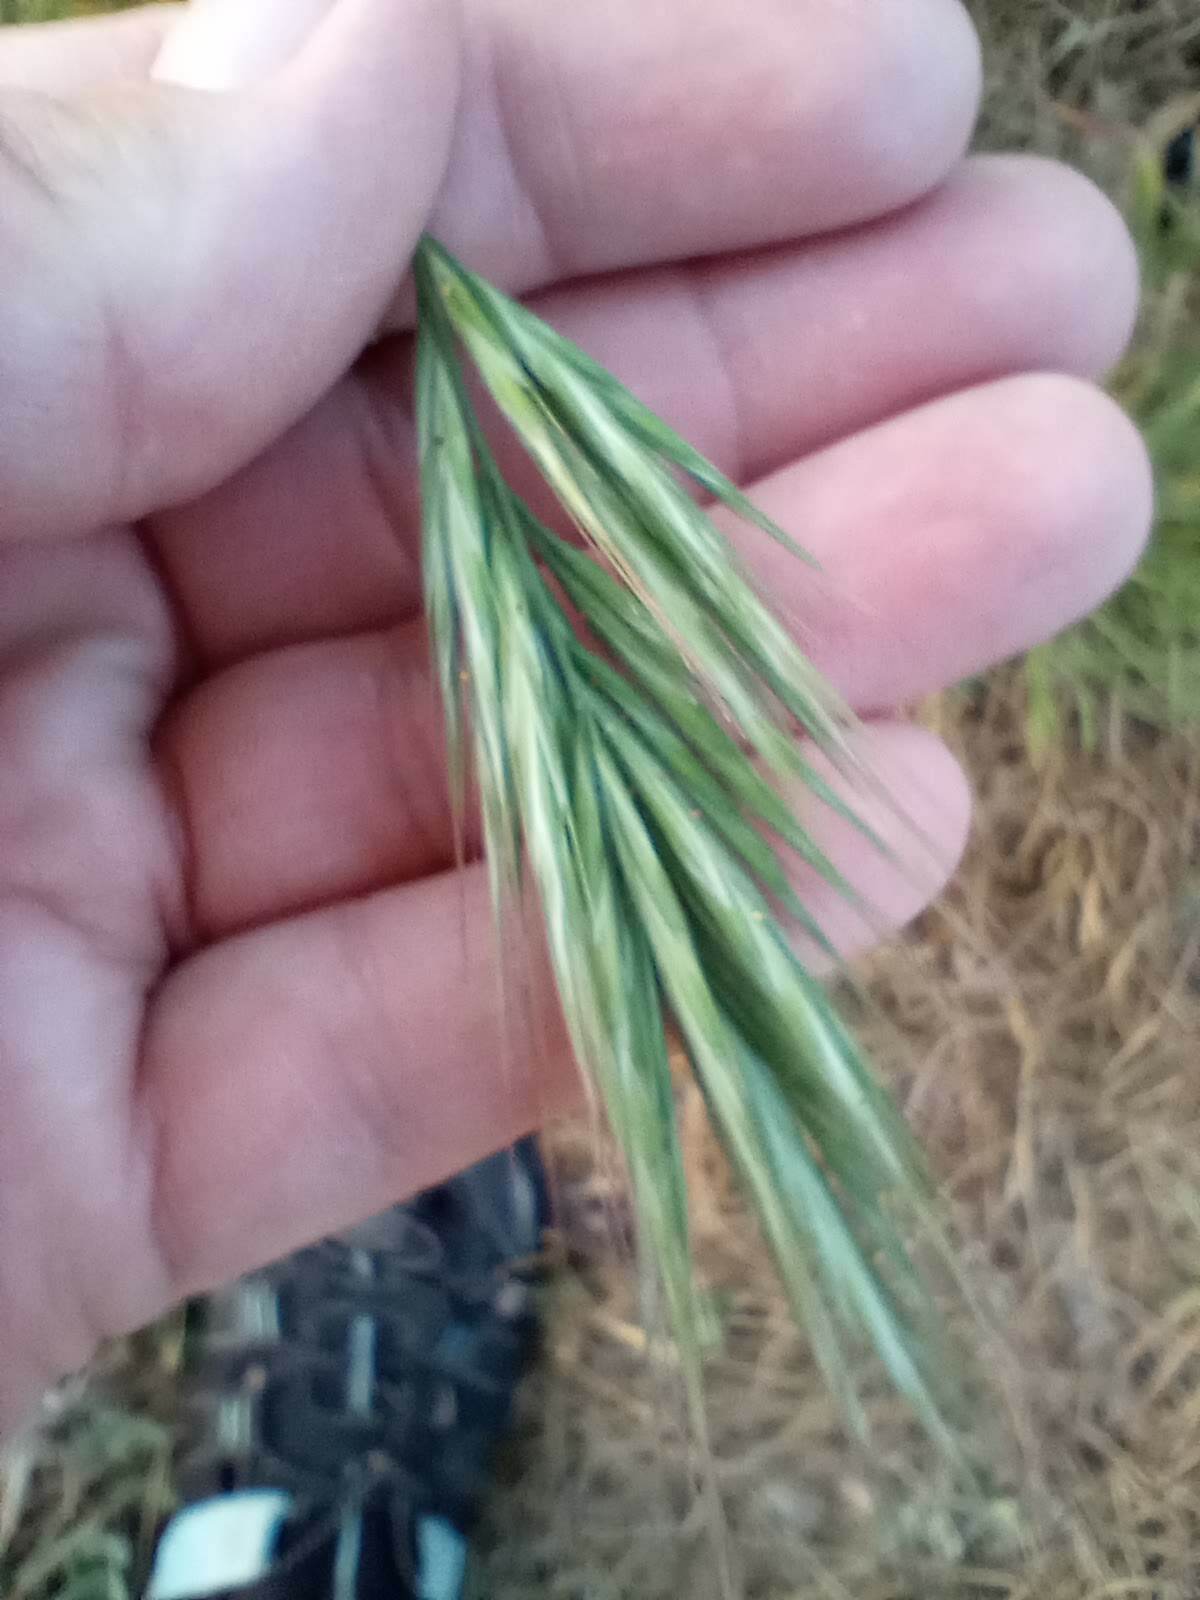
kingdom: Plantae
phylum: Tracheophyta
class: Liliopsida
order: Poales
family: Poaceae
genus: Bromus
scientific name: Bromus rubens
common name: Red brome
